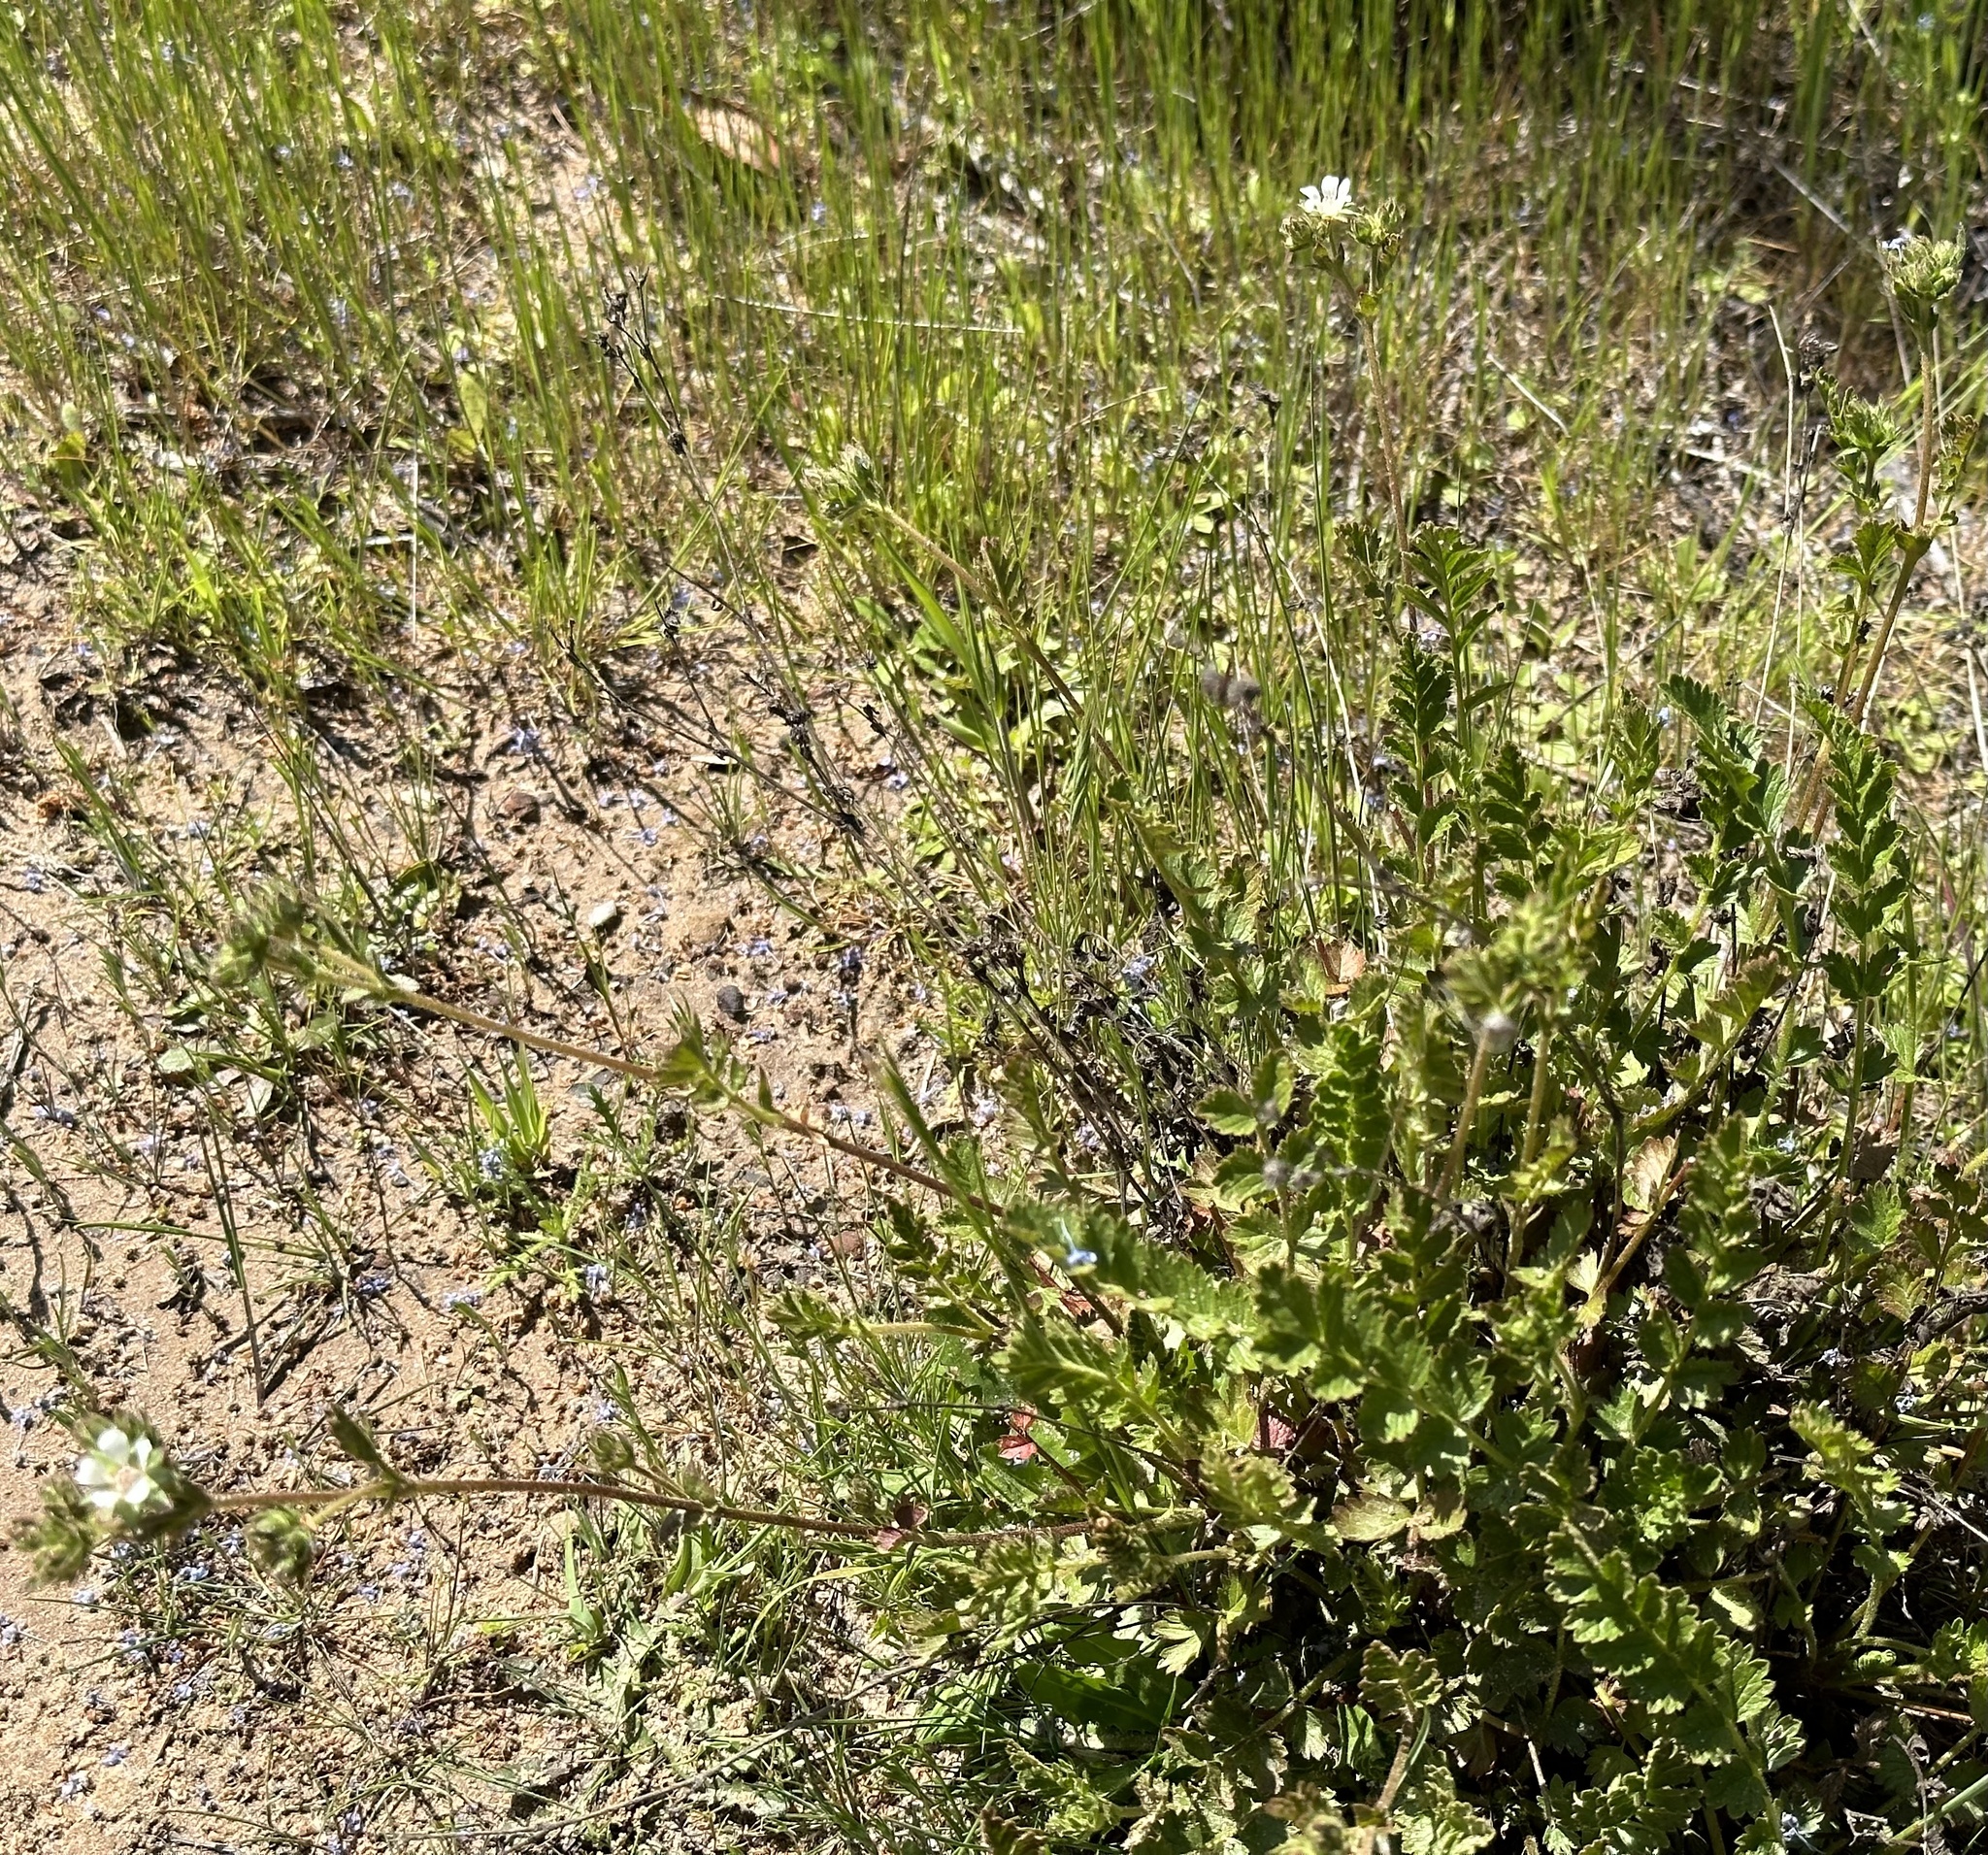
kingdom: Plantae
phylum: Tracheophyta
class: Magnoliopsida
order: Rosales
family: Rosaceae
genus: Potentilla
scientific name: Potentilla
